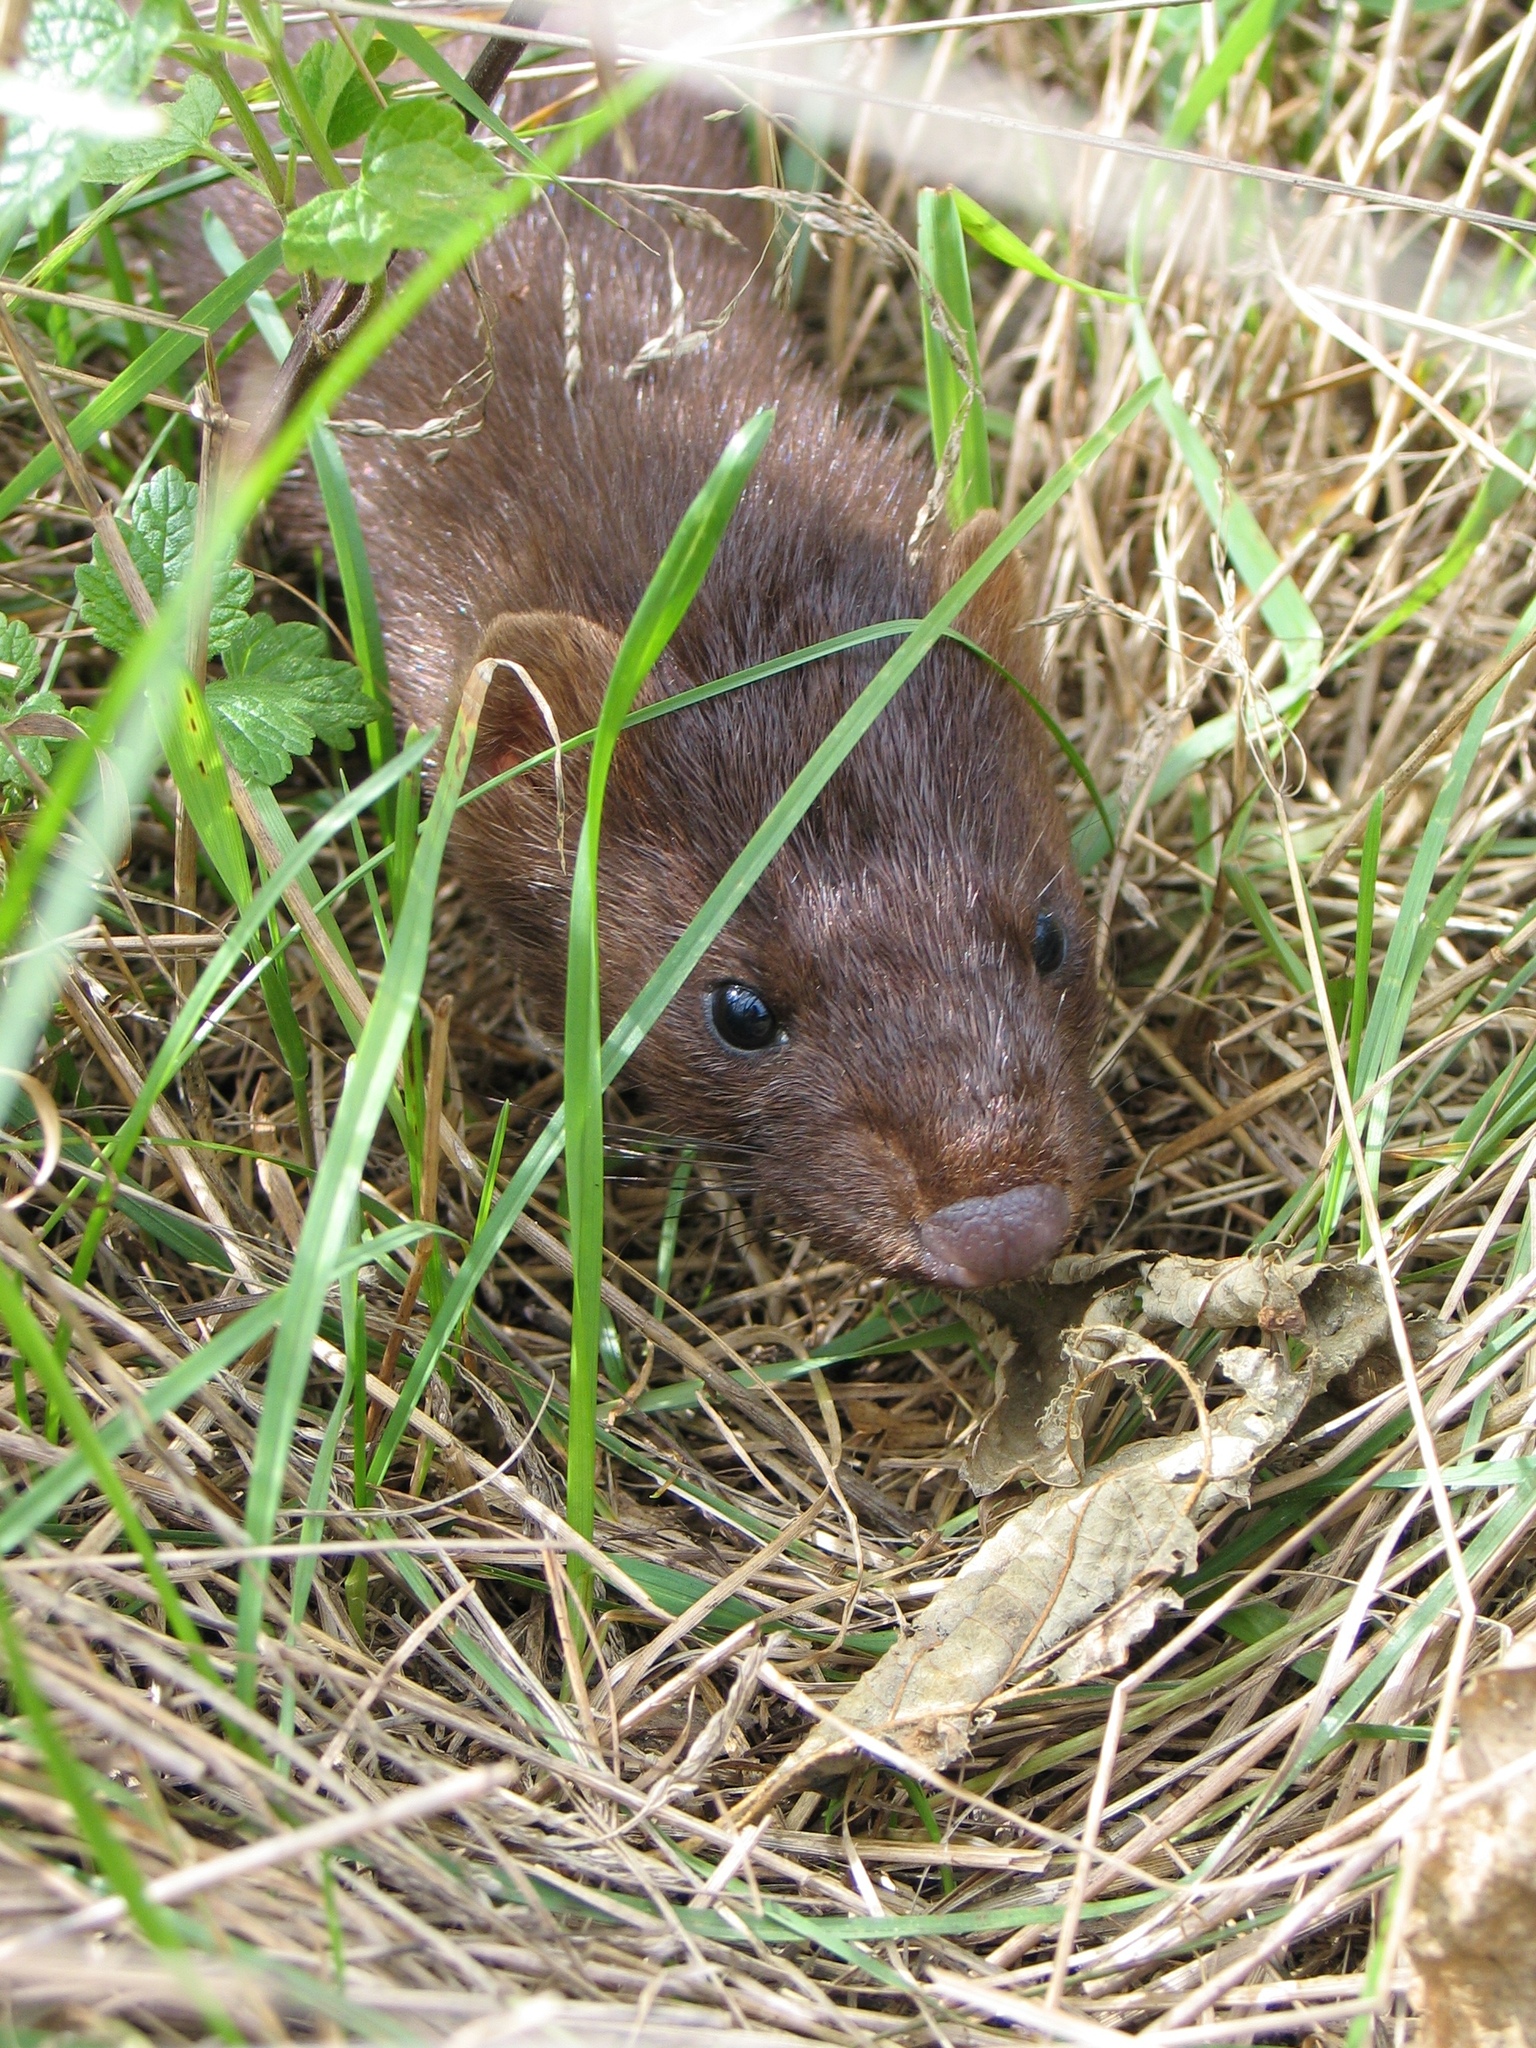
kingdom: Animalia
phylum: Chordata
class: Mammalia
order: Carnivora
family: Mustelidae
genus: Mustela
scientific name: Mustela
